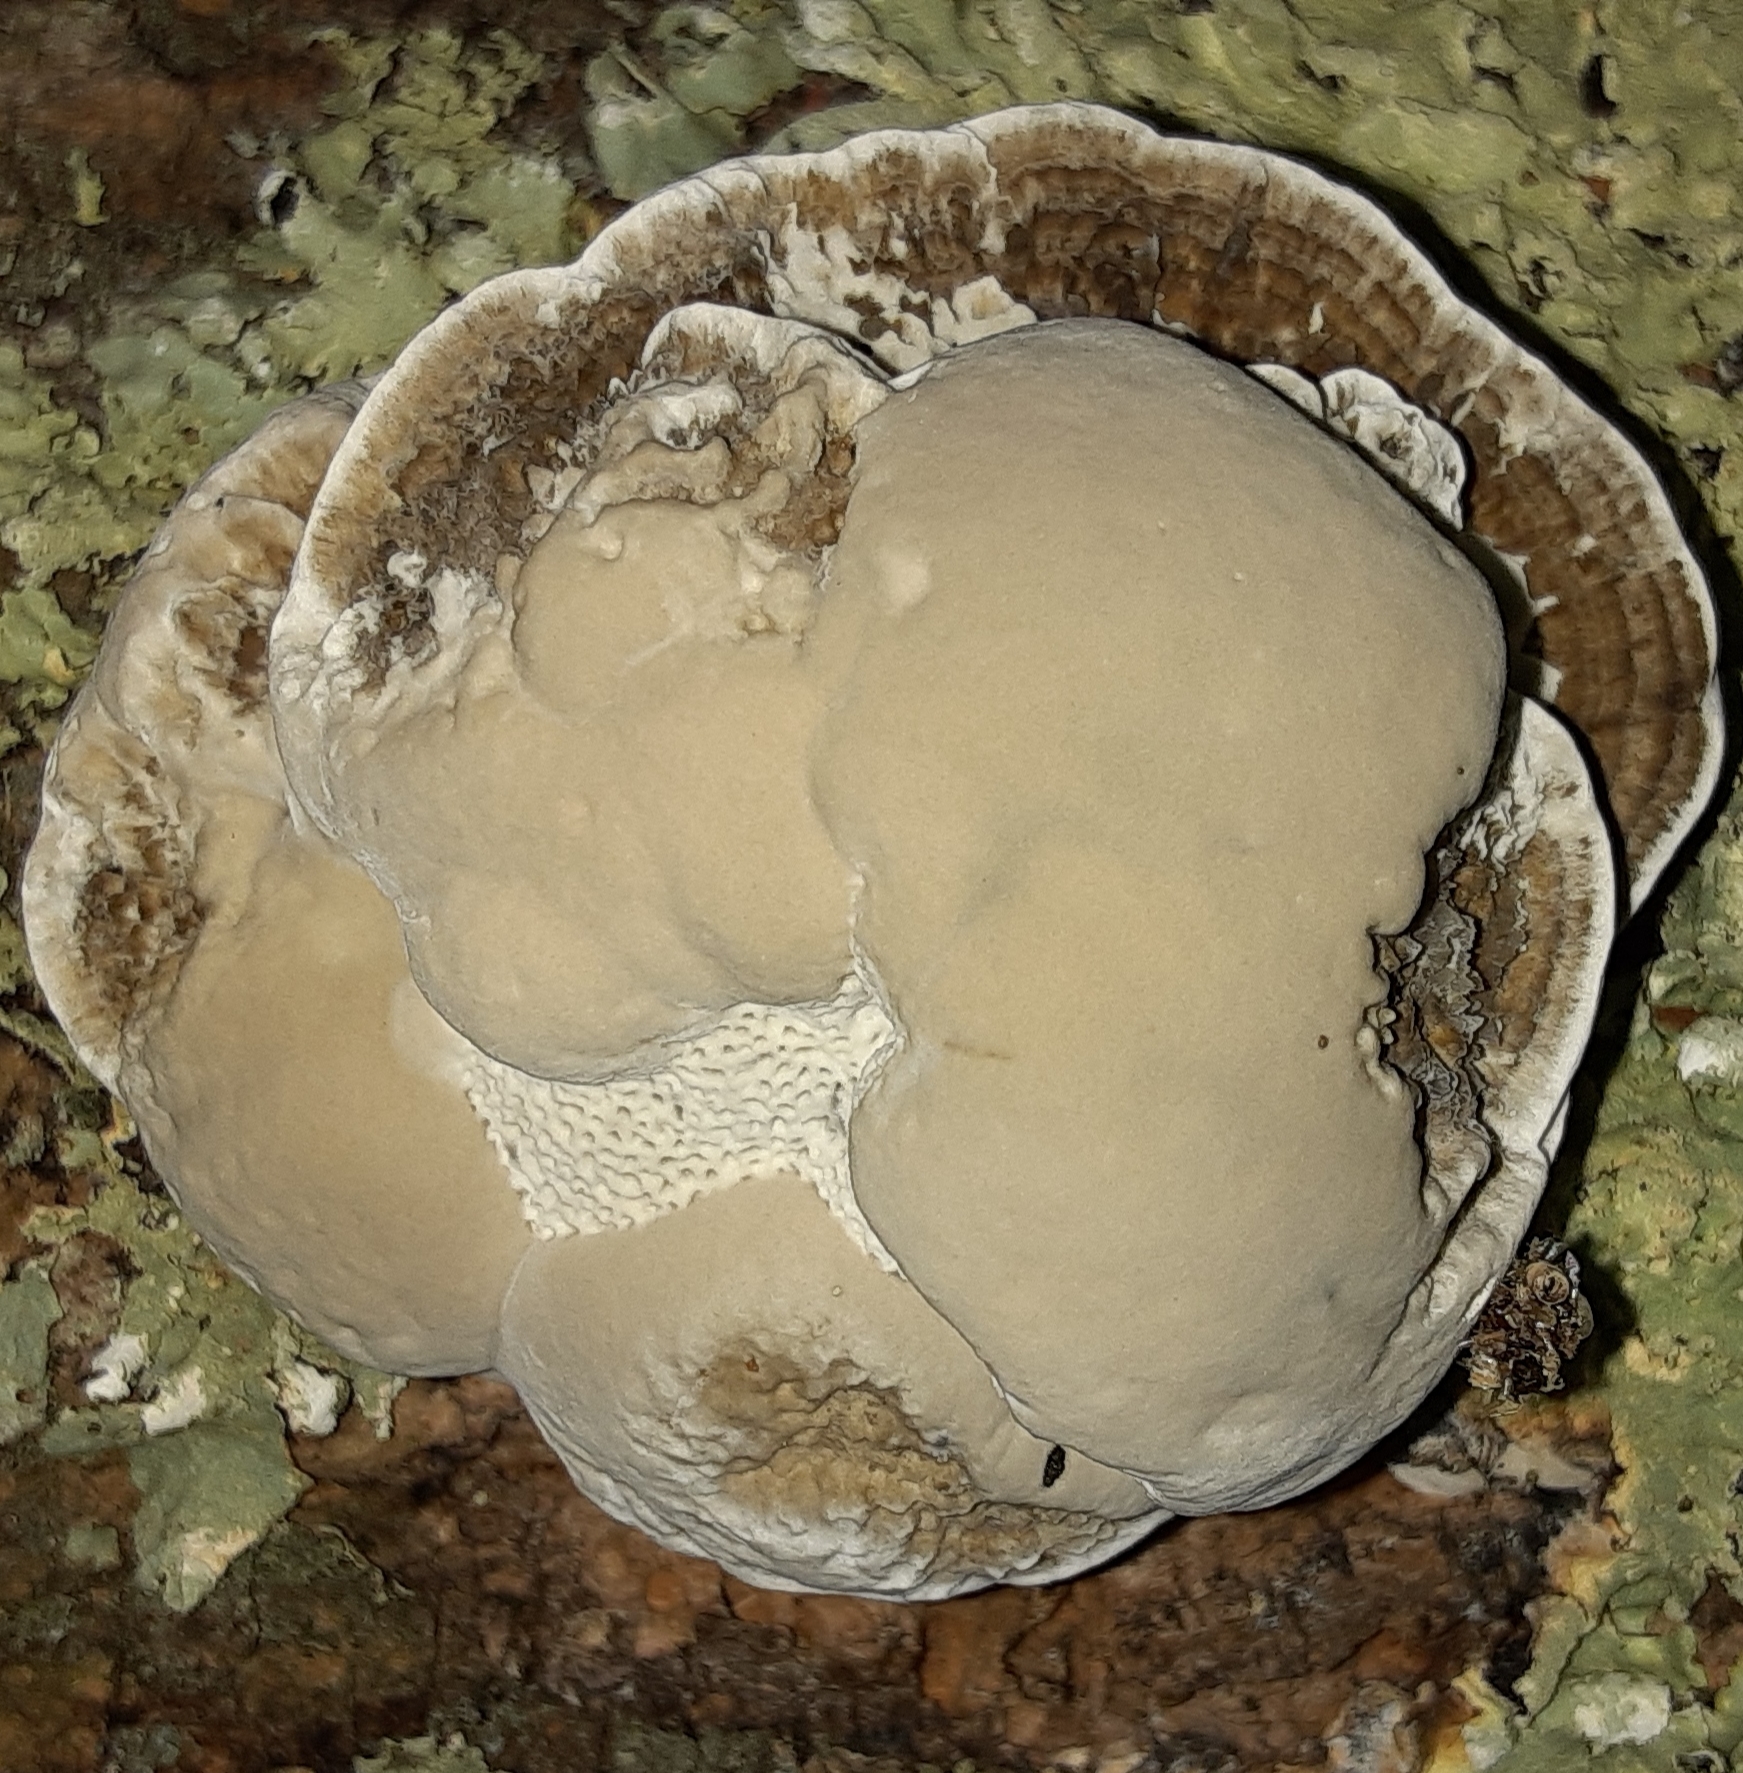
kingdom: Fungi
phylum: Basidiomycota
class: Agaricomycetes
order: Polyporales
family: Polyporaceae
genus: Daedaleopsis
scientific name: Daedaleopsis confragosa
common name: Blushing bracket
